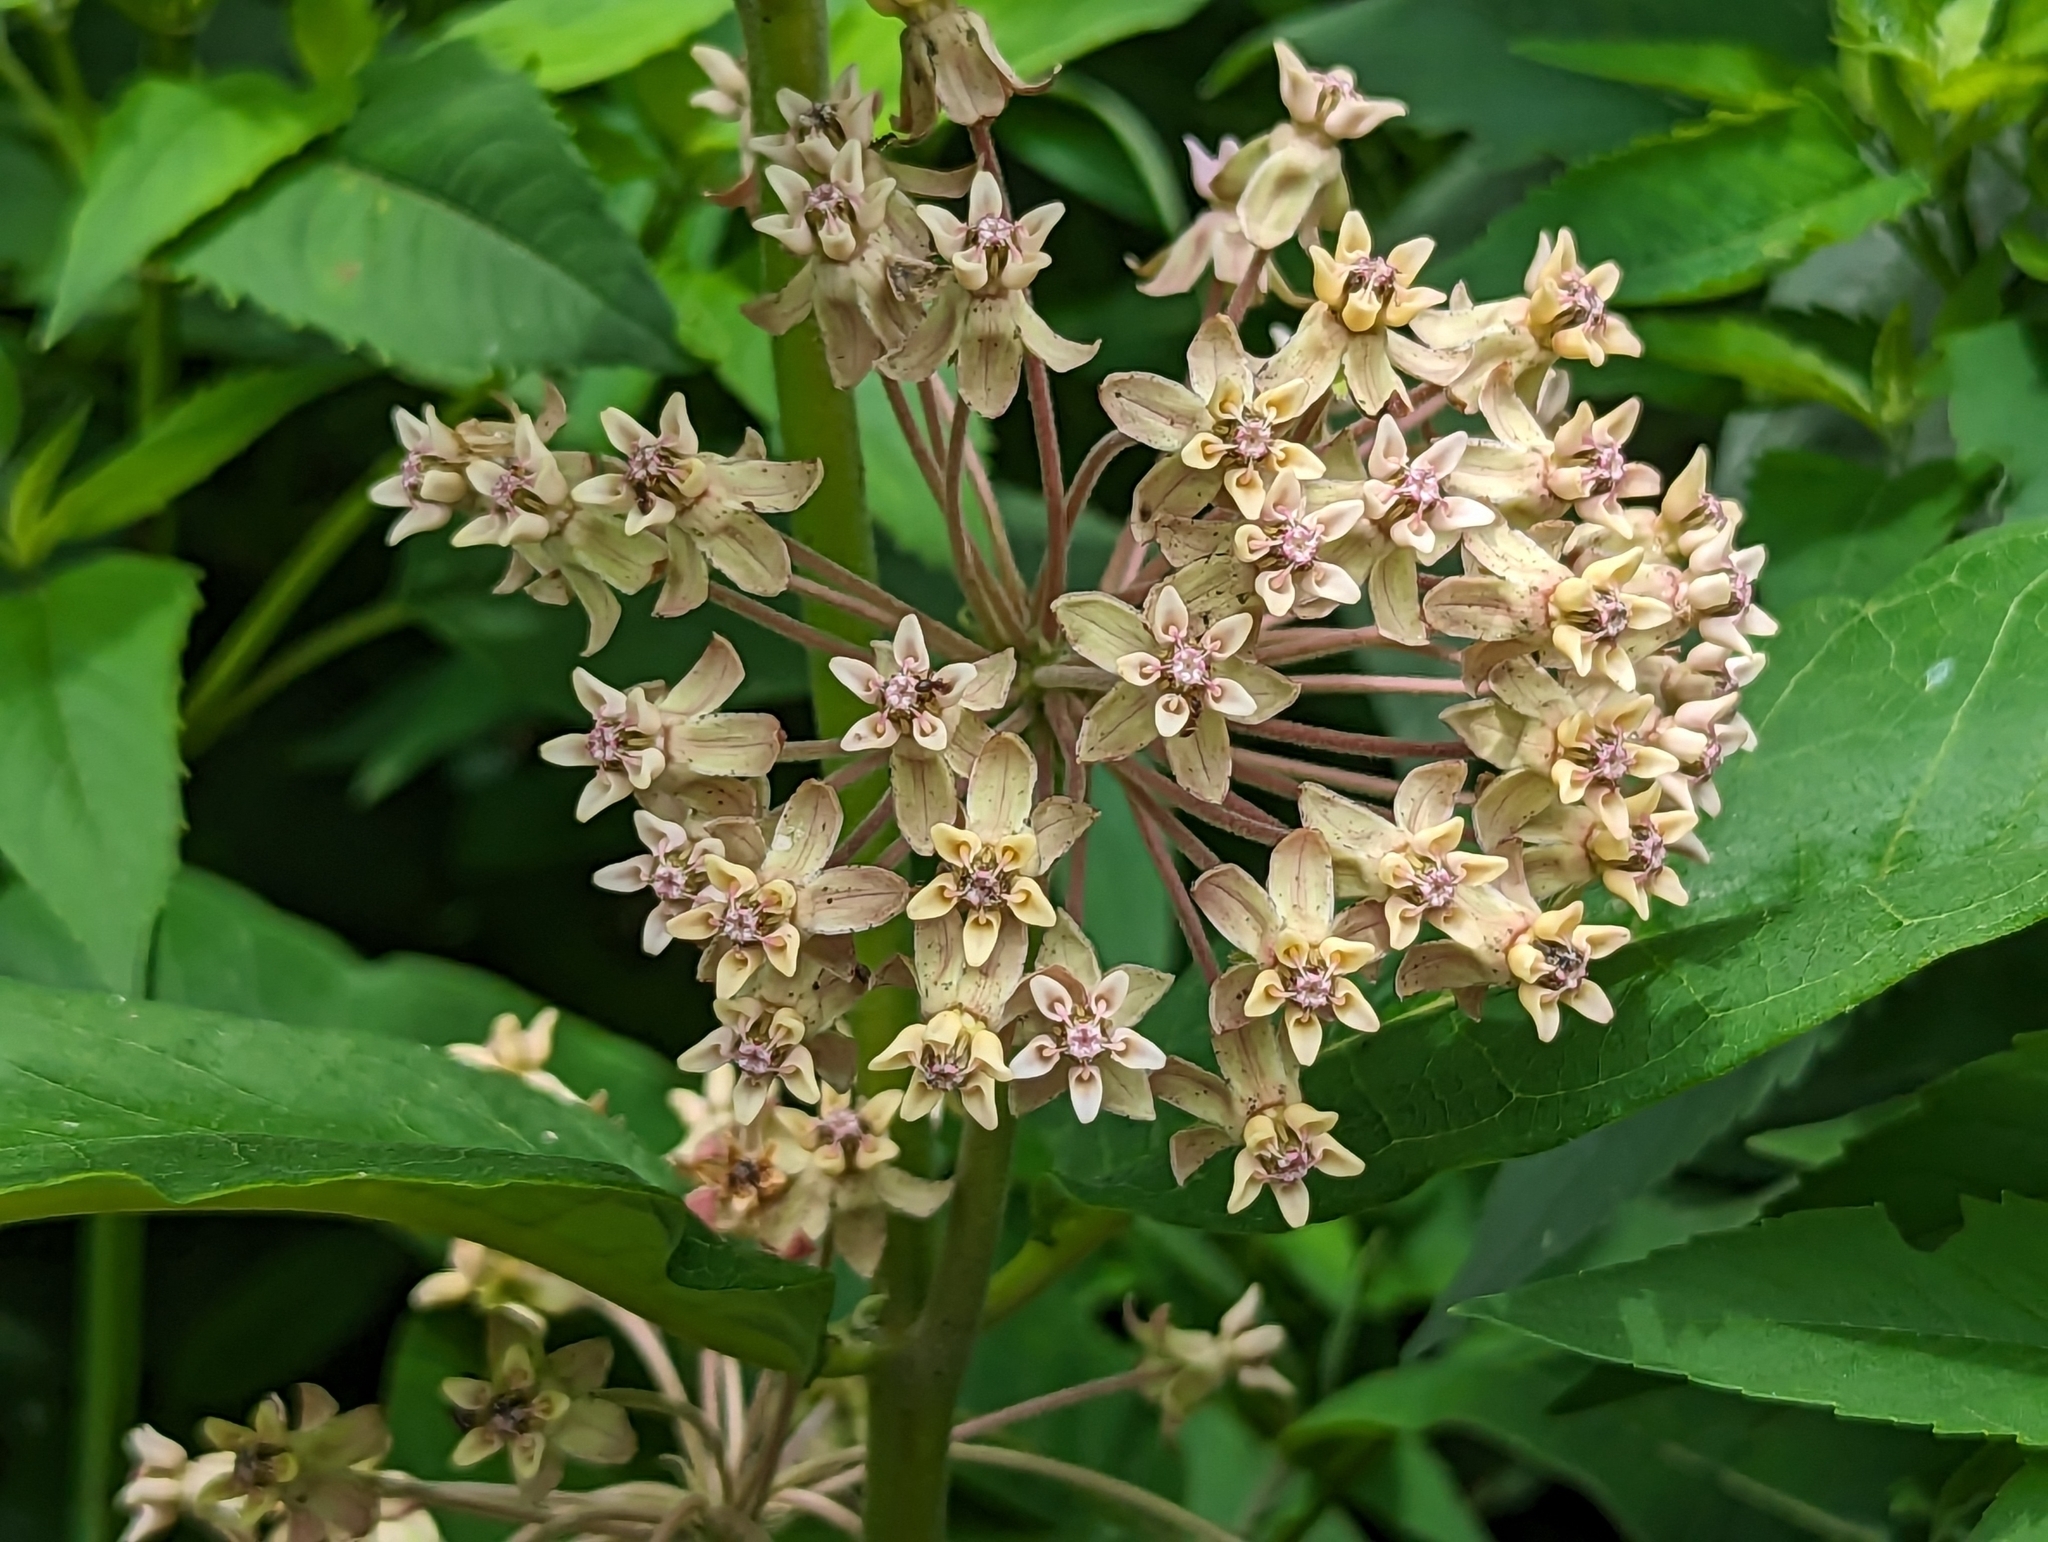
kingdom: Plantae
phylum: Tracheophyta
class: Magnoliopsida
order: Gentianales
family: Apocynaceae
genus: Asclepias
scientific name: Asclepias syriaca
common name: Common milkweed
